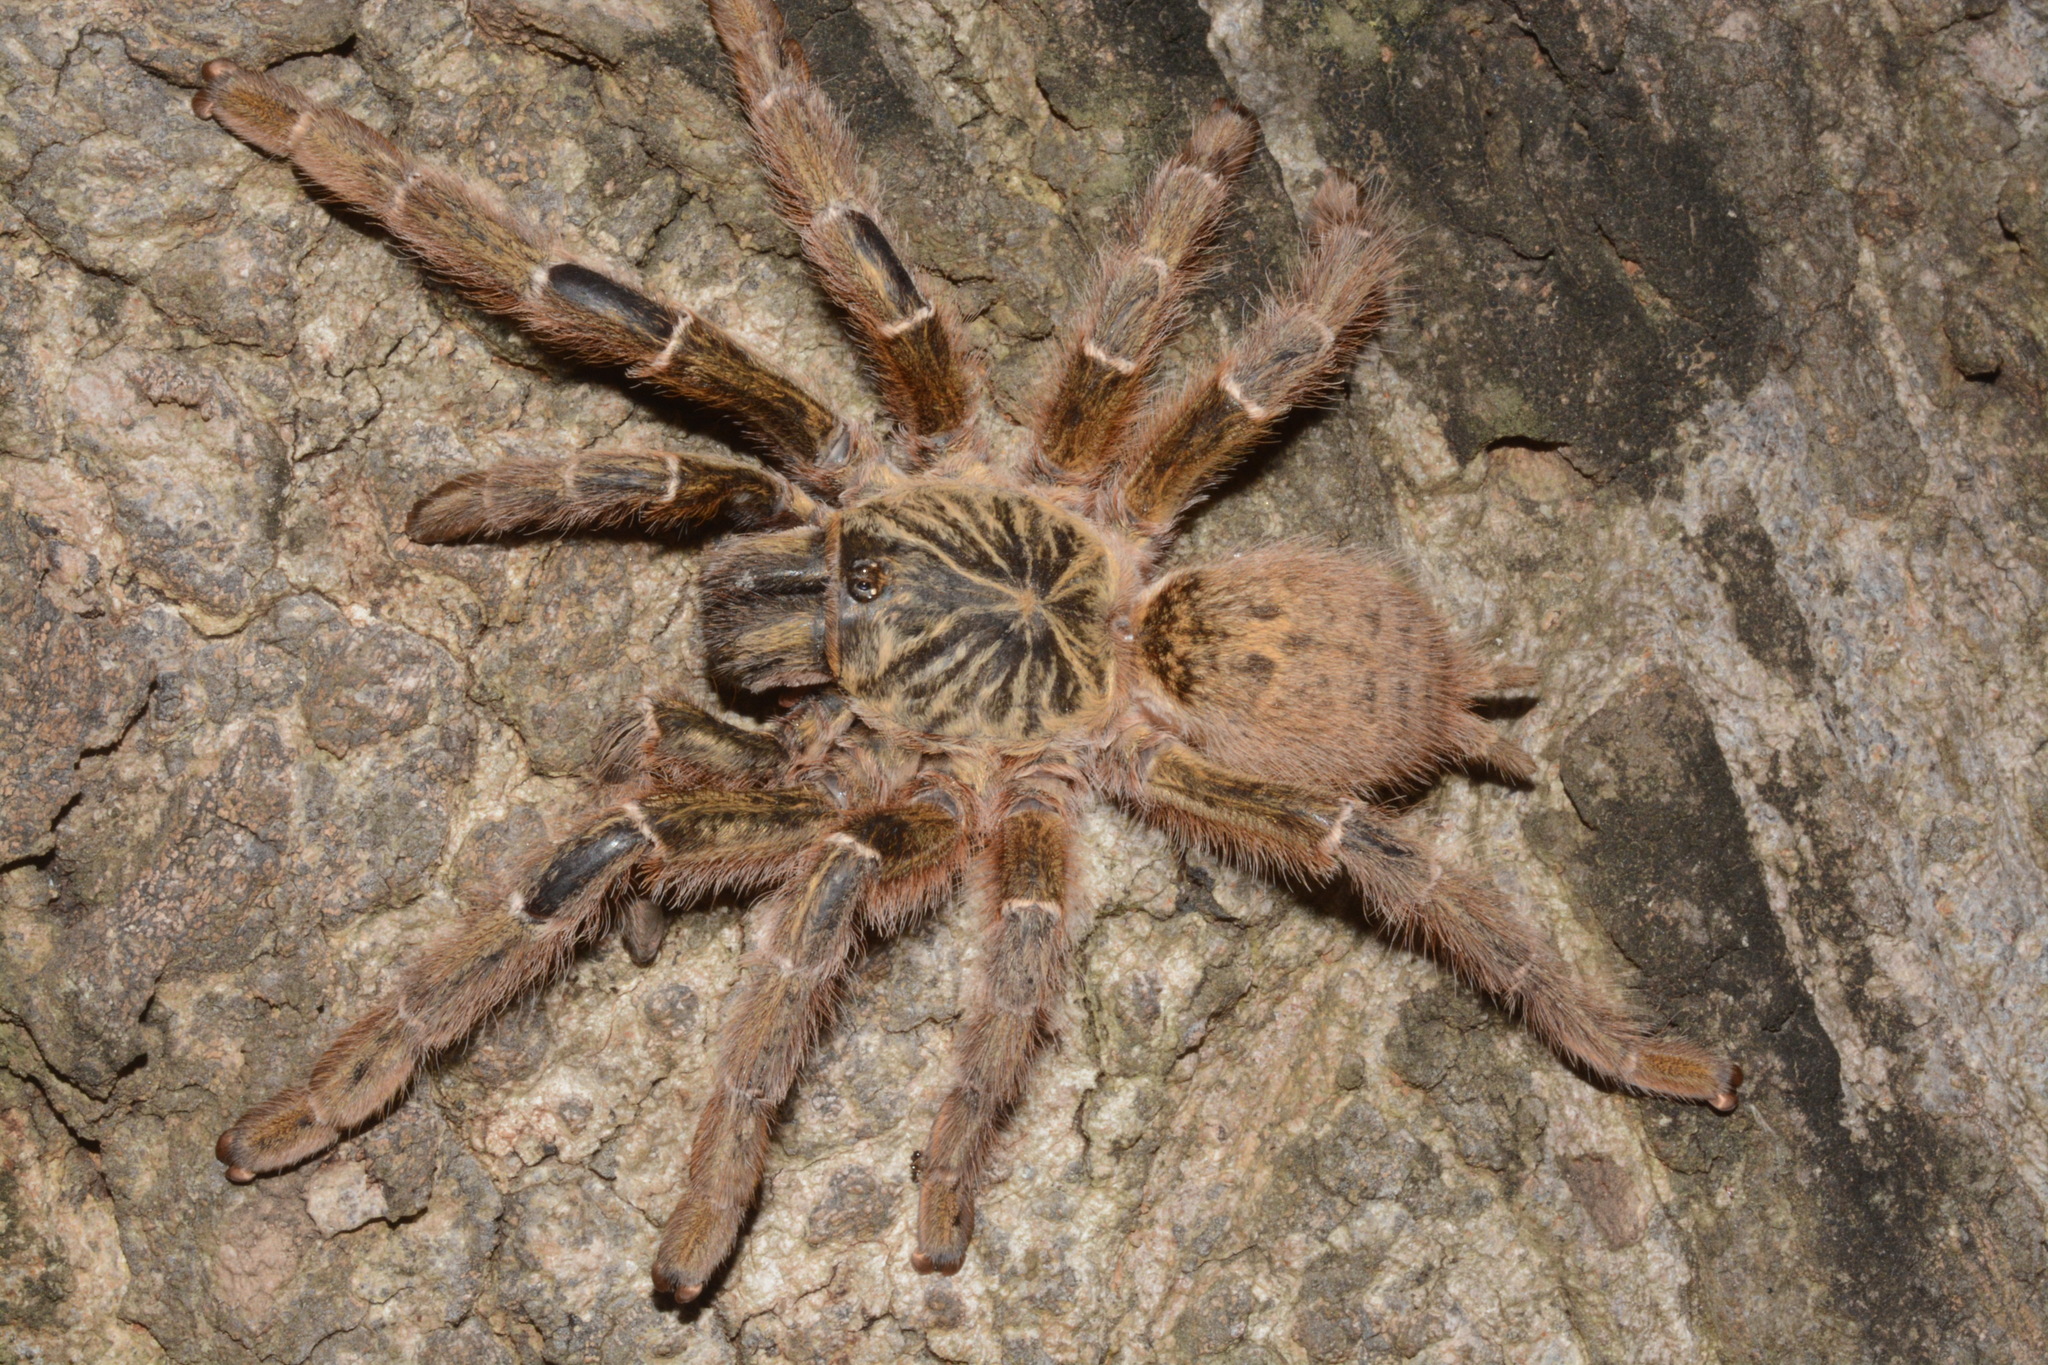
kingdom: Animalia
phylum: Arthropoda
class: Arachnida
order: Araneae
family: Theraphosidae
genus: Pterinochilus
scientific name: Pterinochilus murinus
